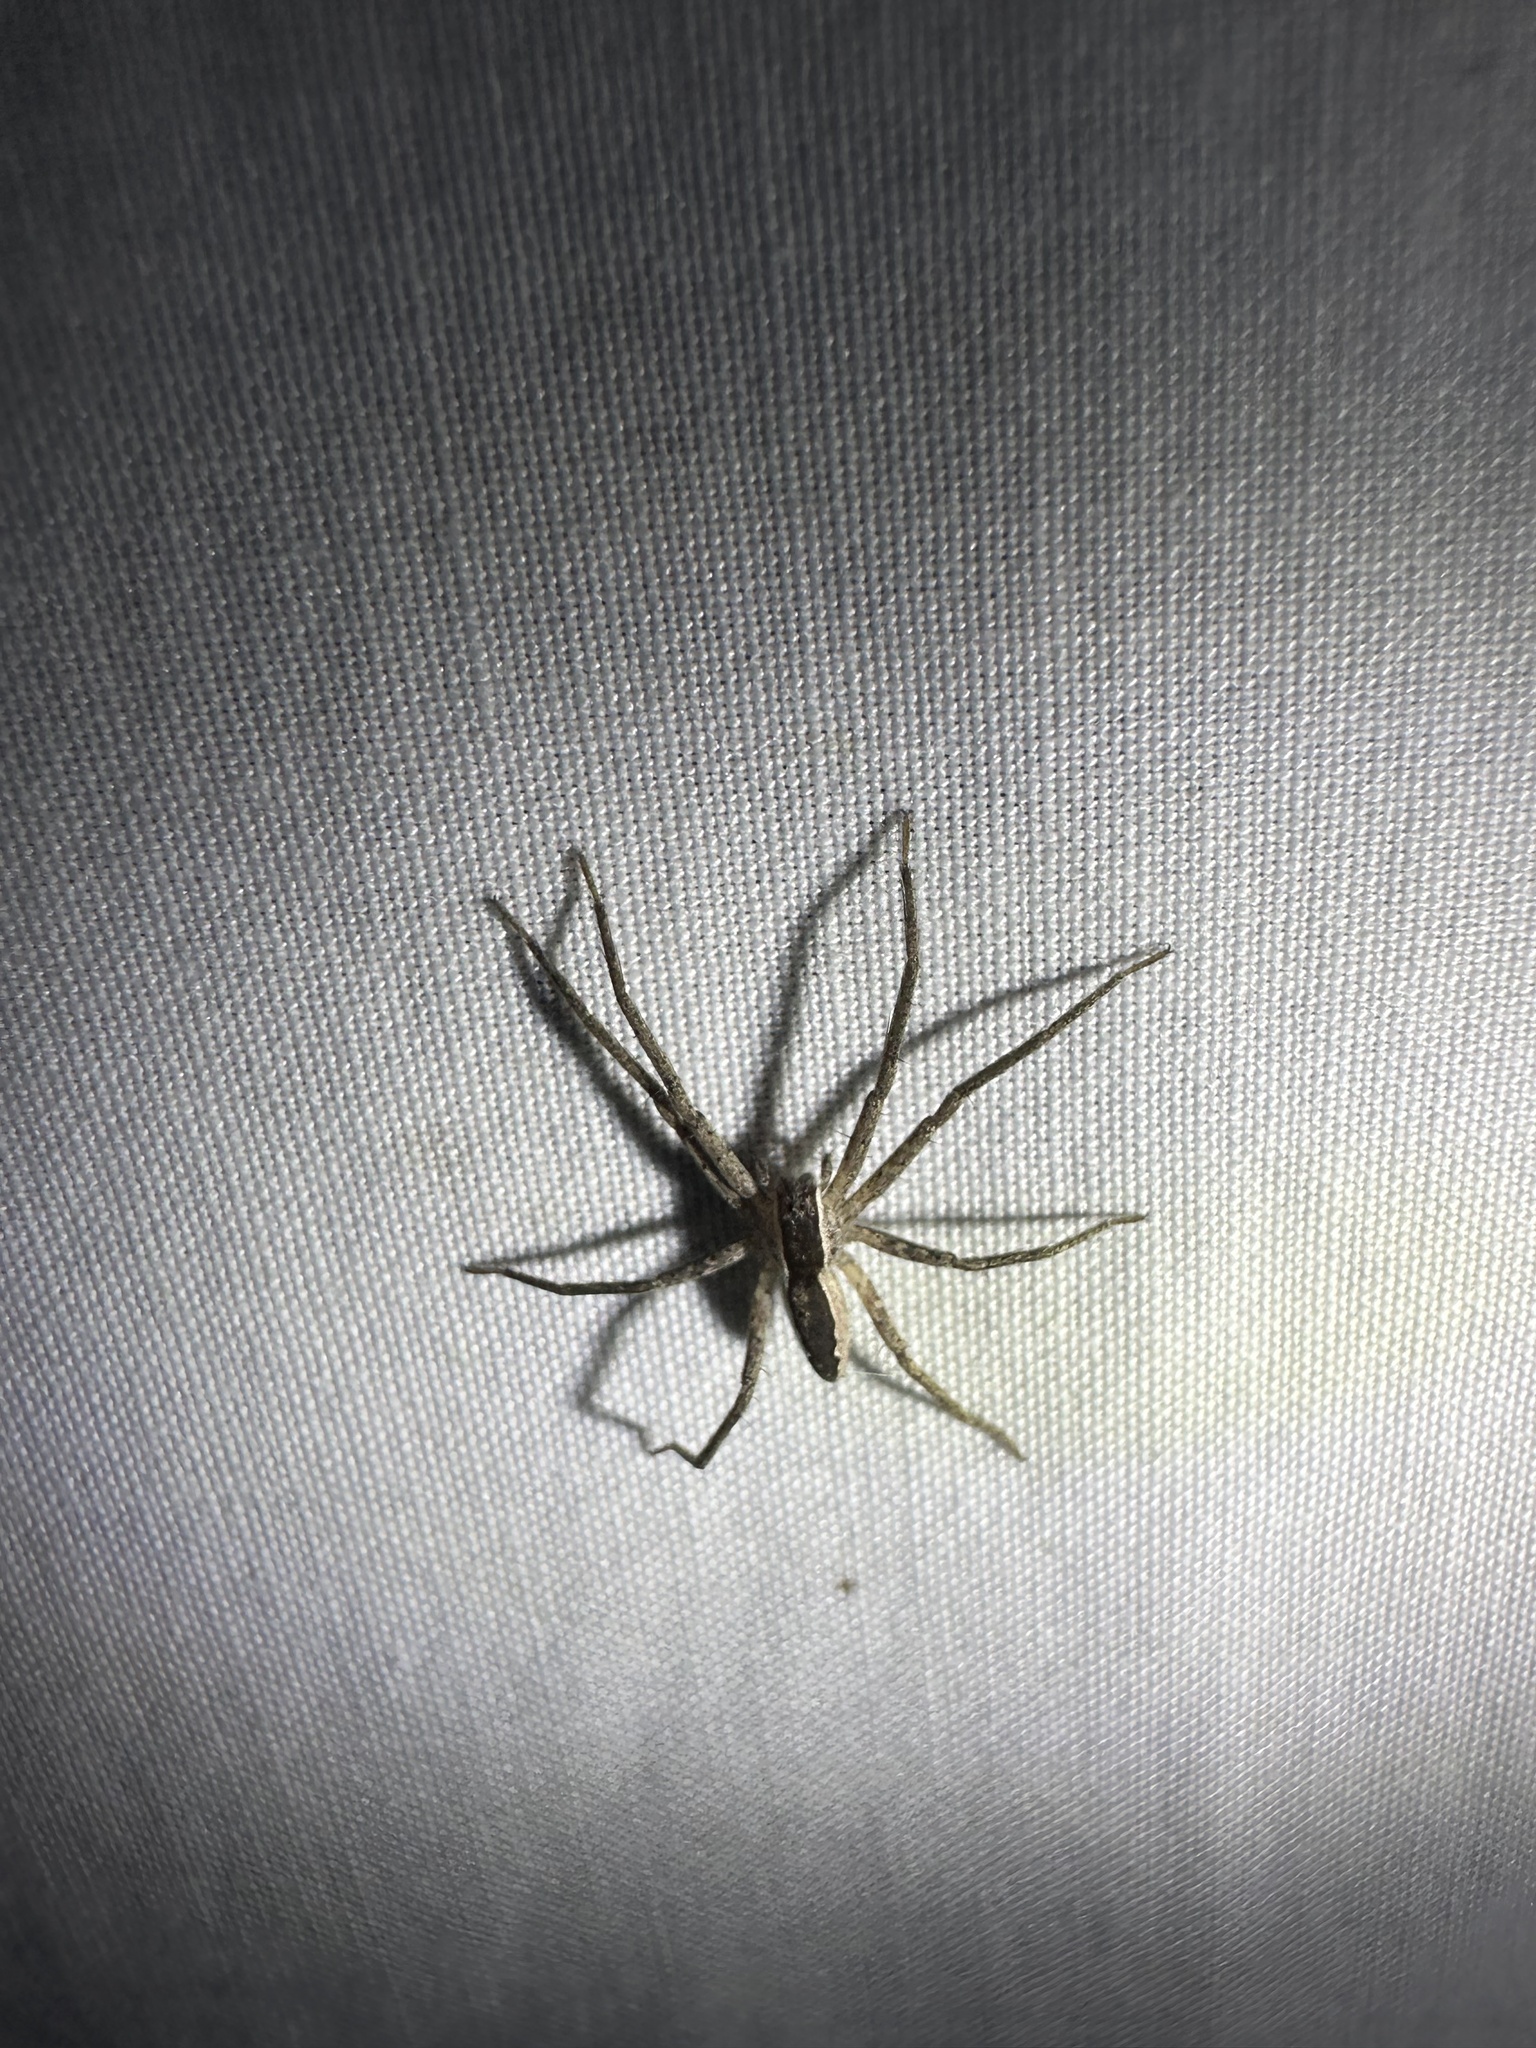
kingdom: Animalia
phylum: Arthropoda
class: Arachnida
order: Araneae
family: Pisauridae
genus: Pisaurina
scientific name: Pisaurina mira
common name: American nursery web spider
